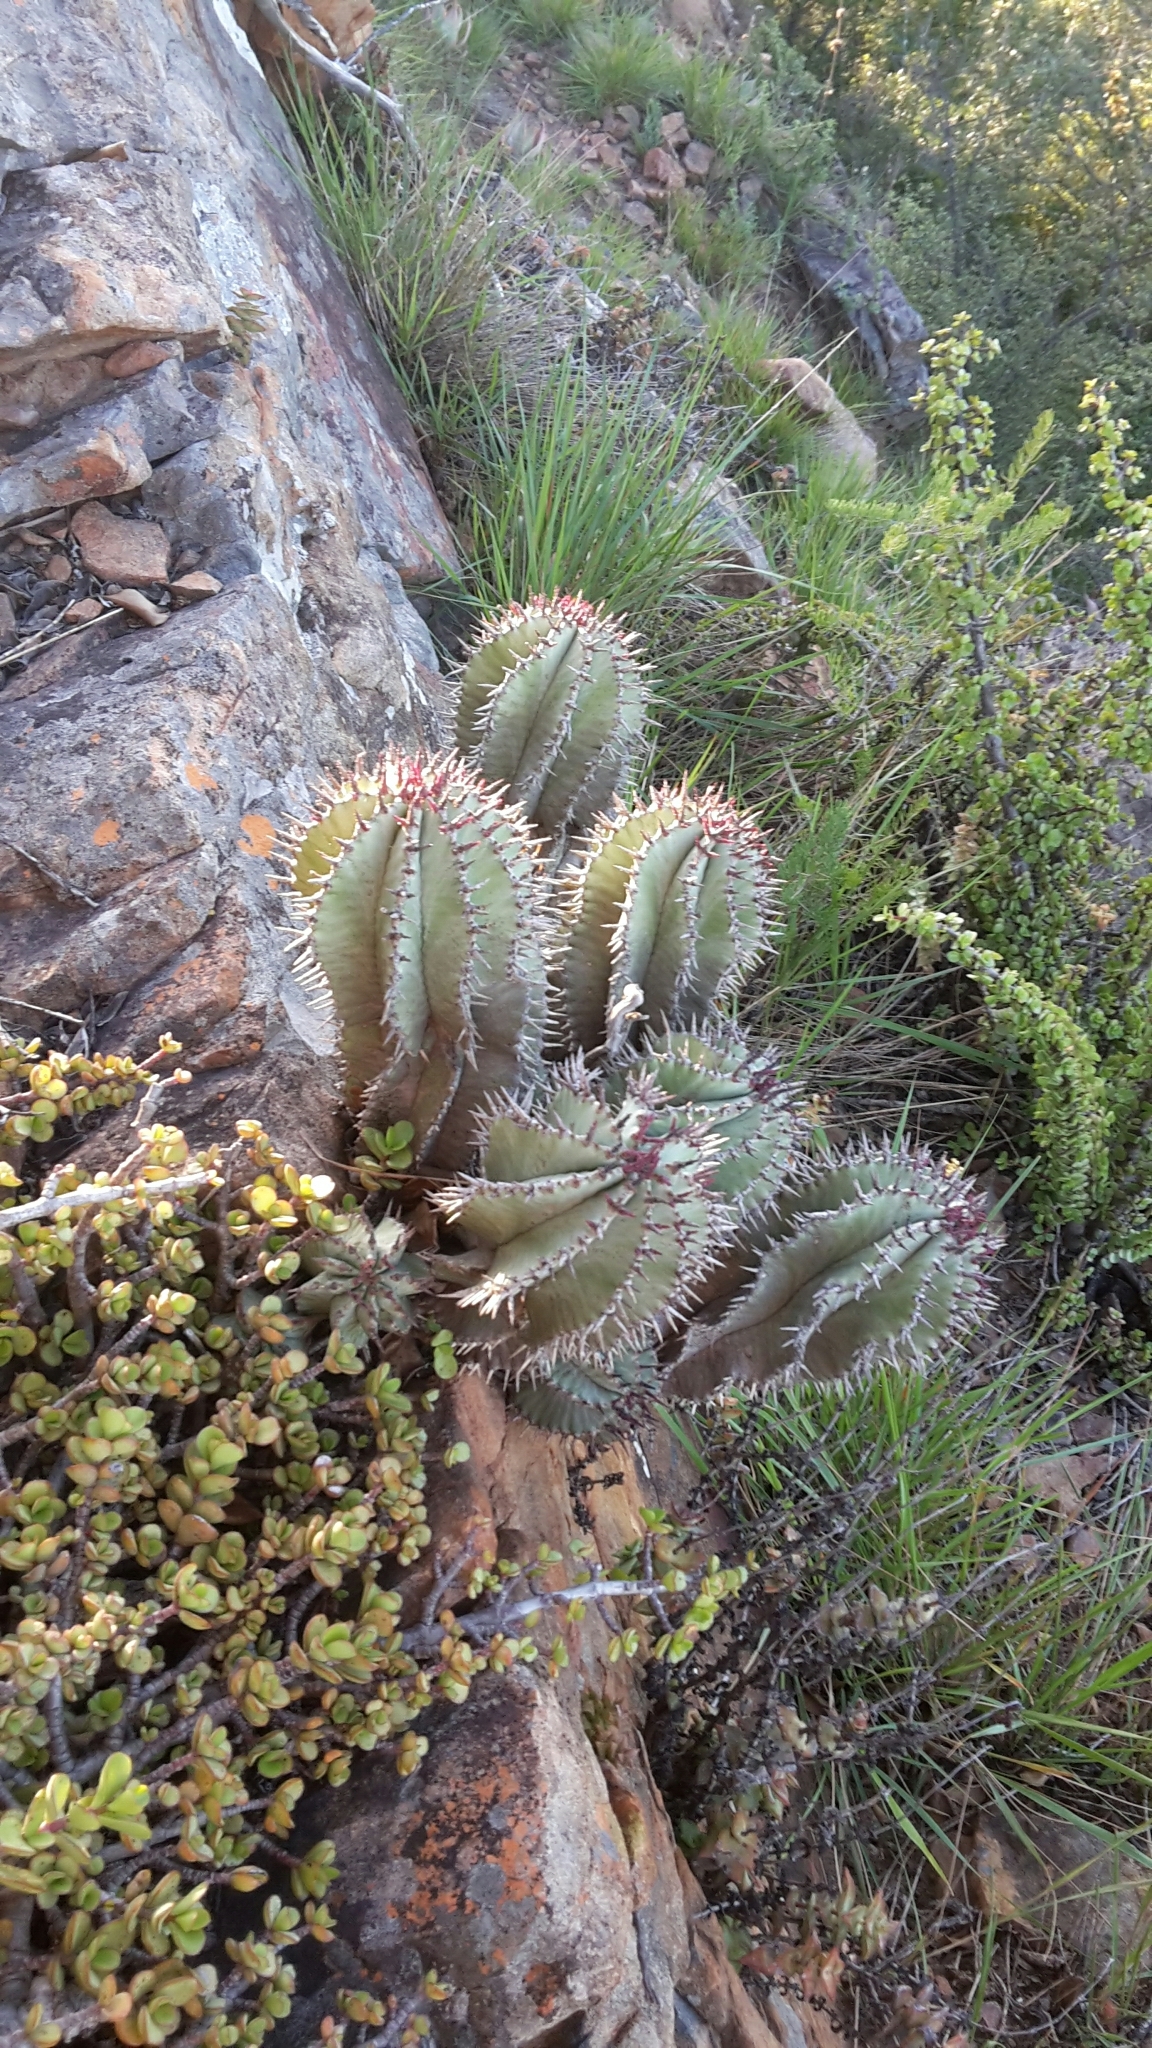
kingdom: Plantae
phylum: Tracheophyta
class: Magnoliopsida
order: Malpighiales
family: Euphorbiaceae
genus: Euphorbia
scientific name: Euphorbia polygona
